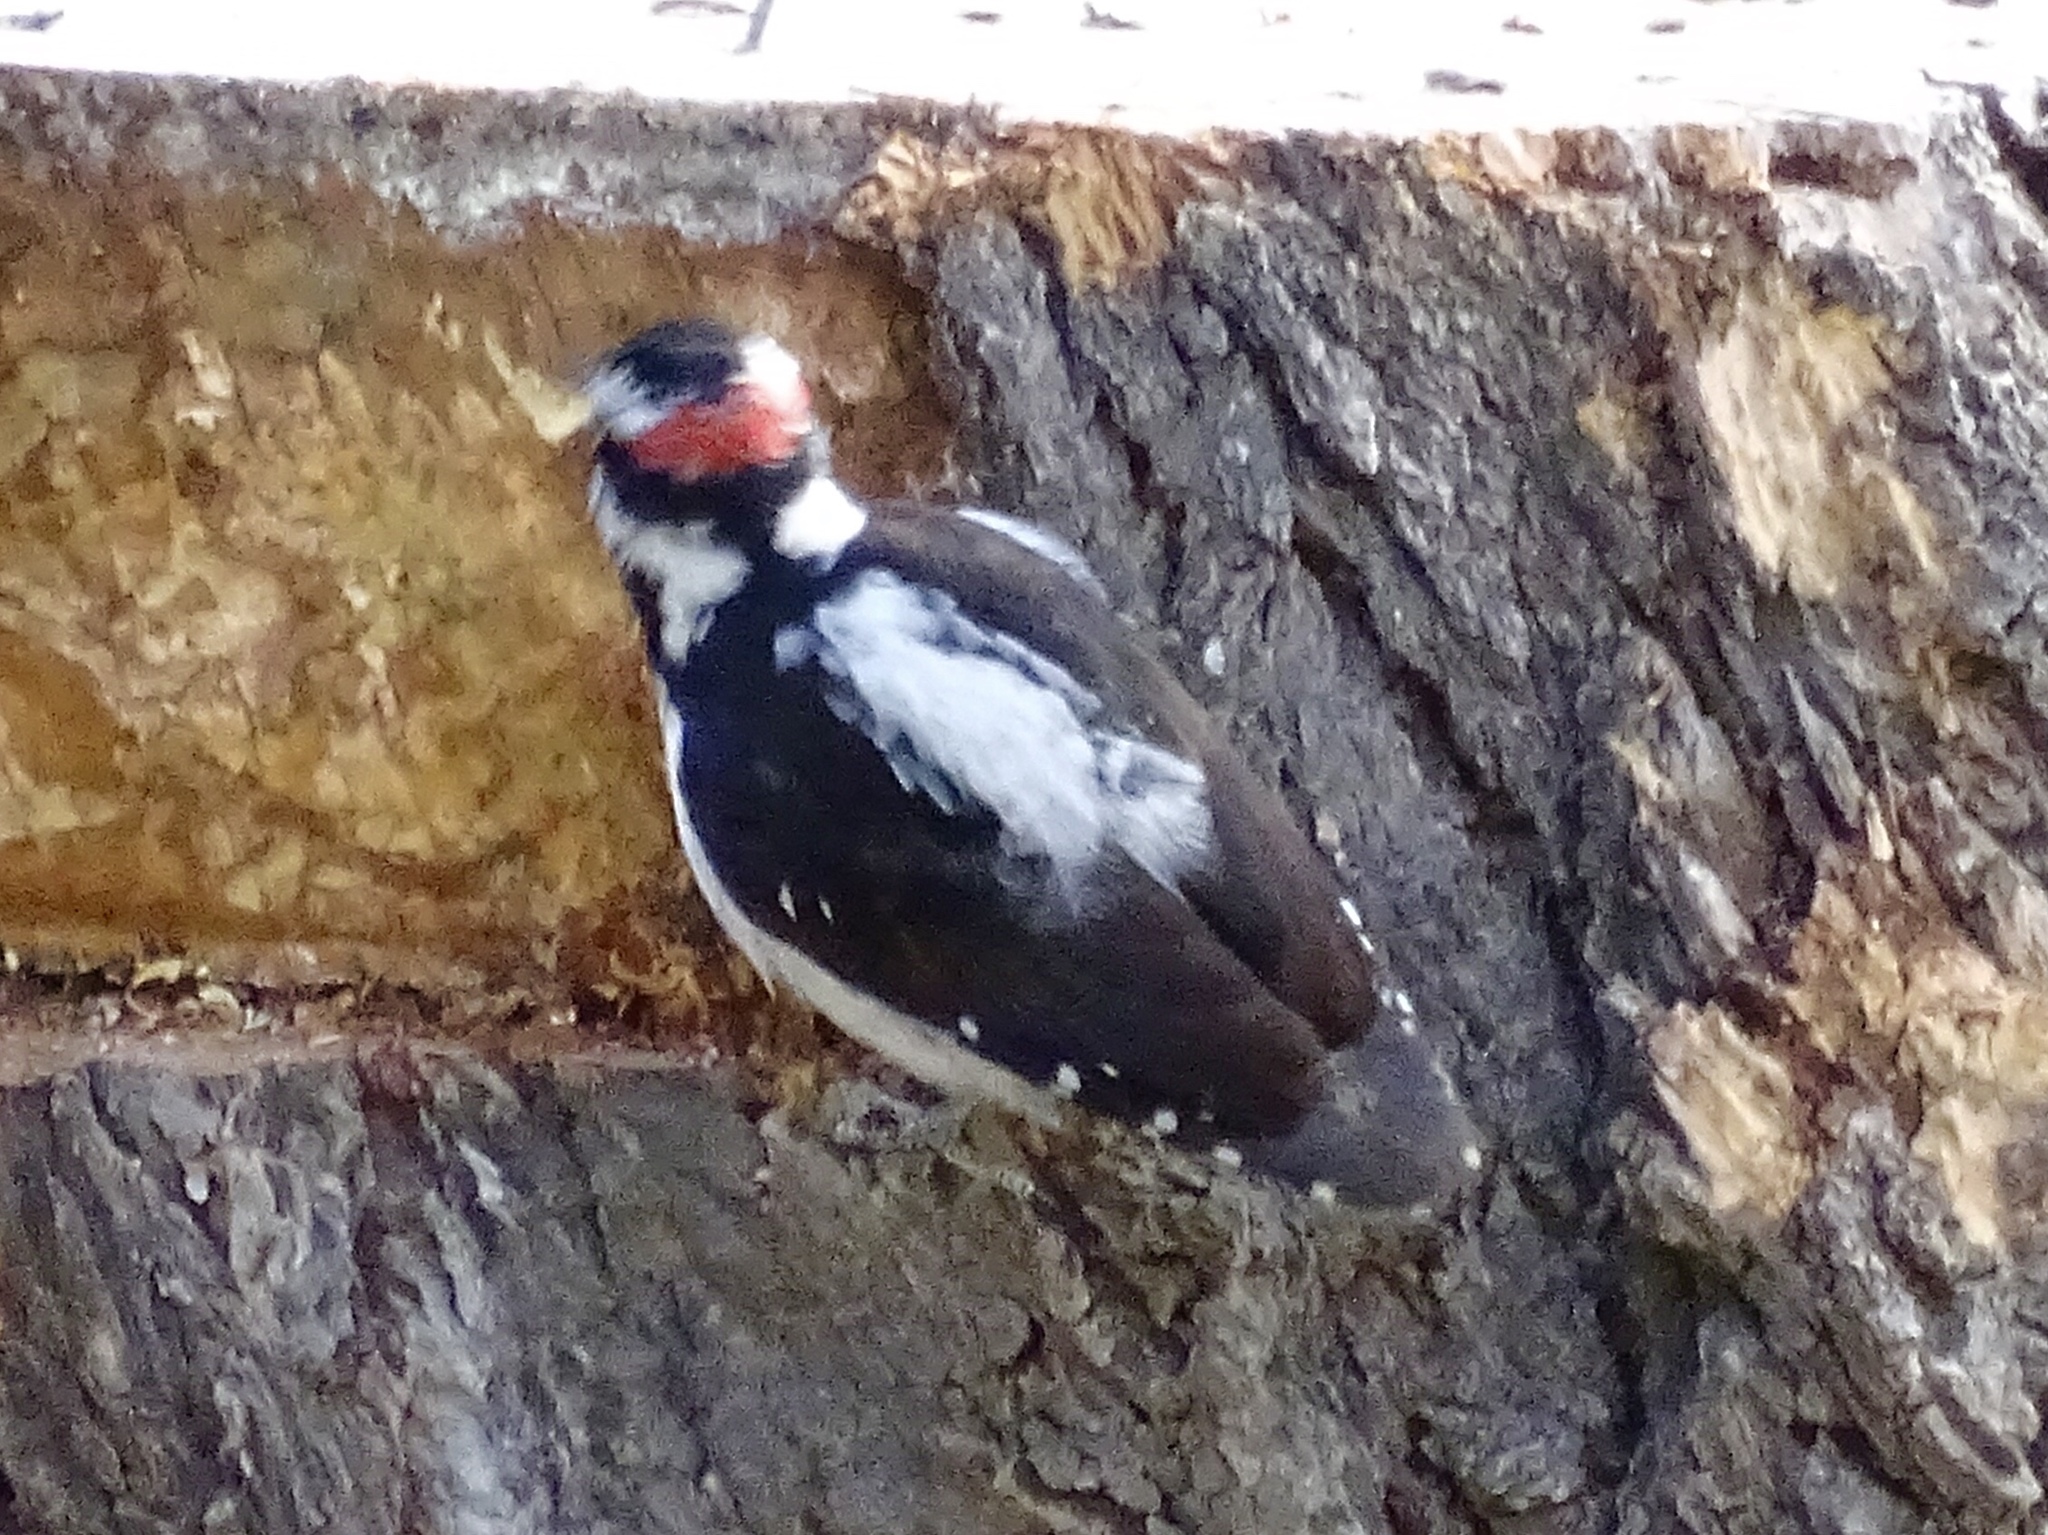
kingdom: Animalia
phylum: Chordata
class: Aves
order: Piciformes
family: Picidae
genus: Dryobates
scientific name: Dryobates pubescens
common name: Downy woodpecker
